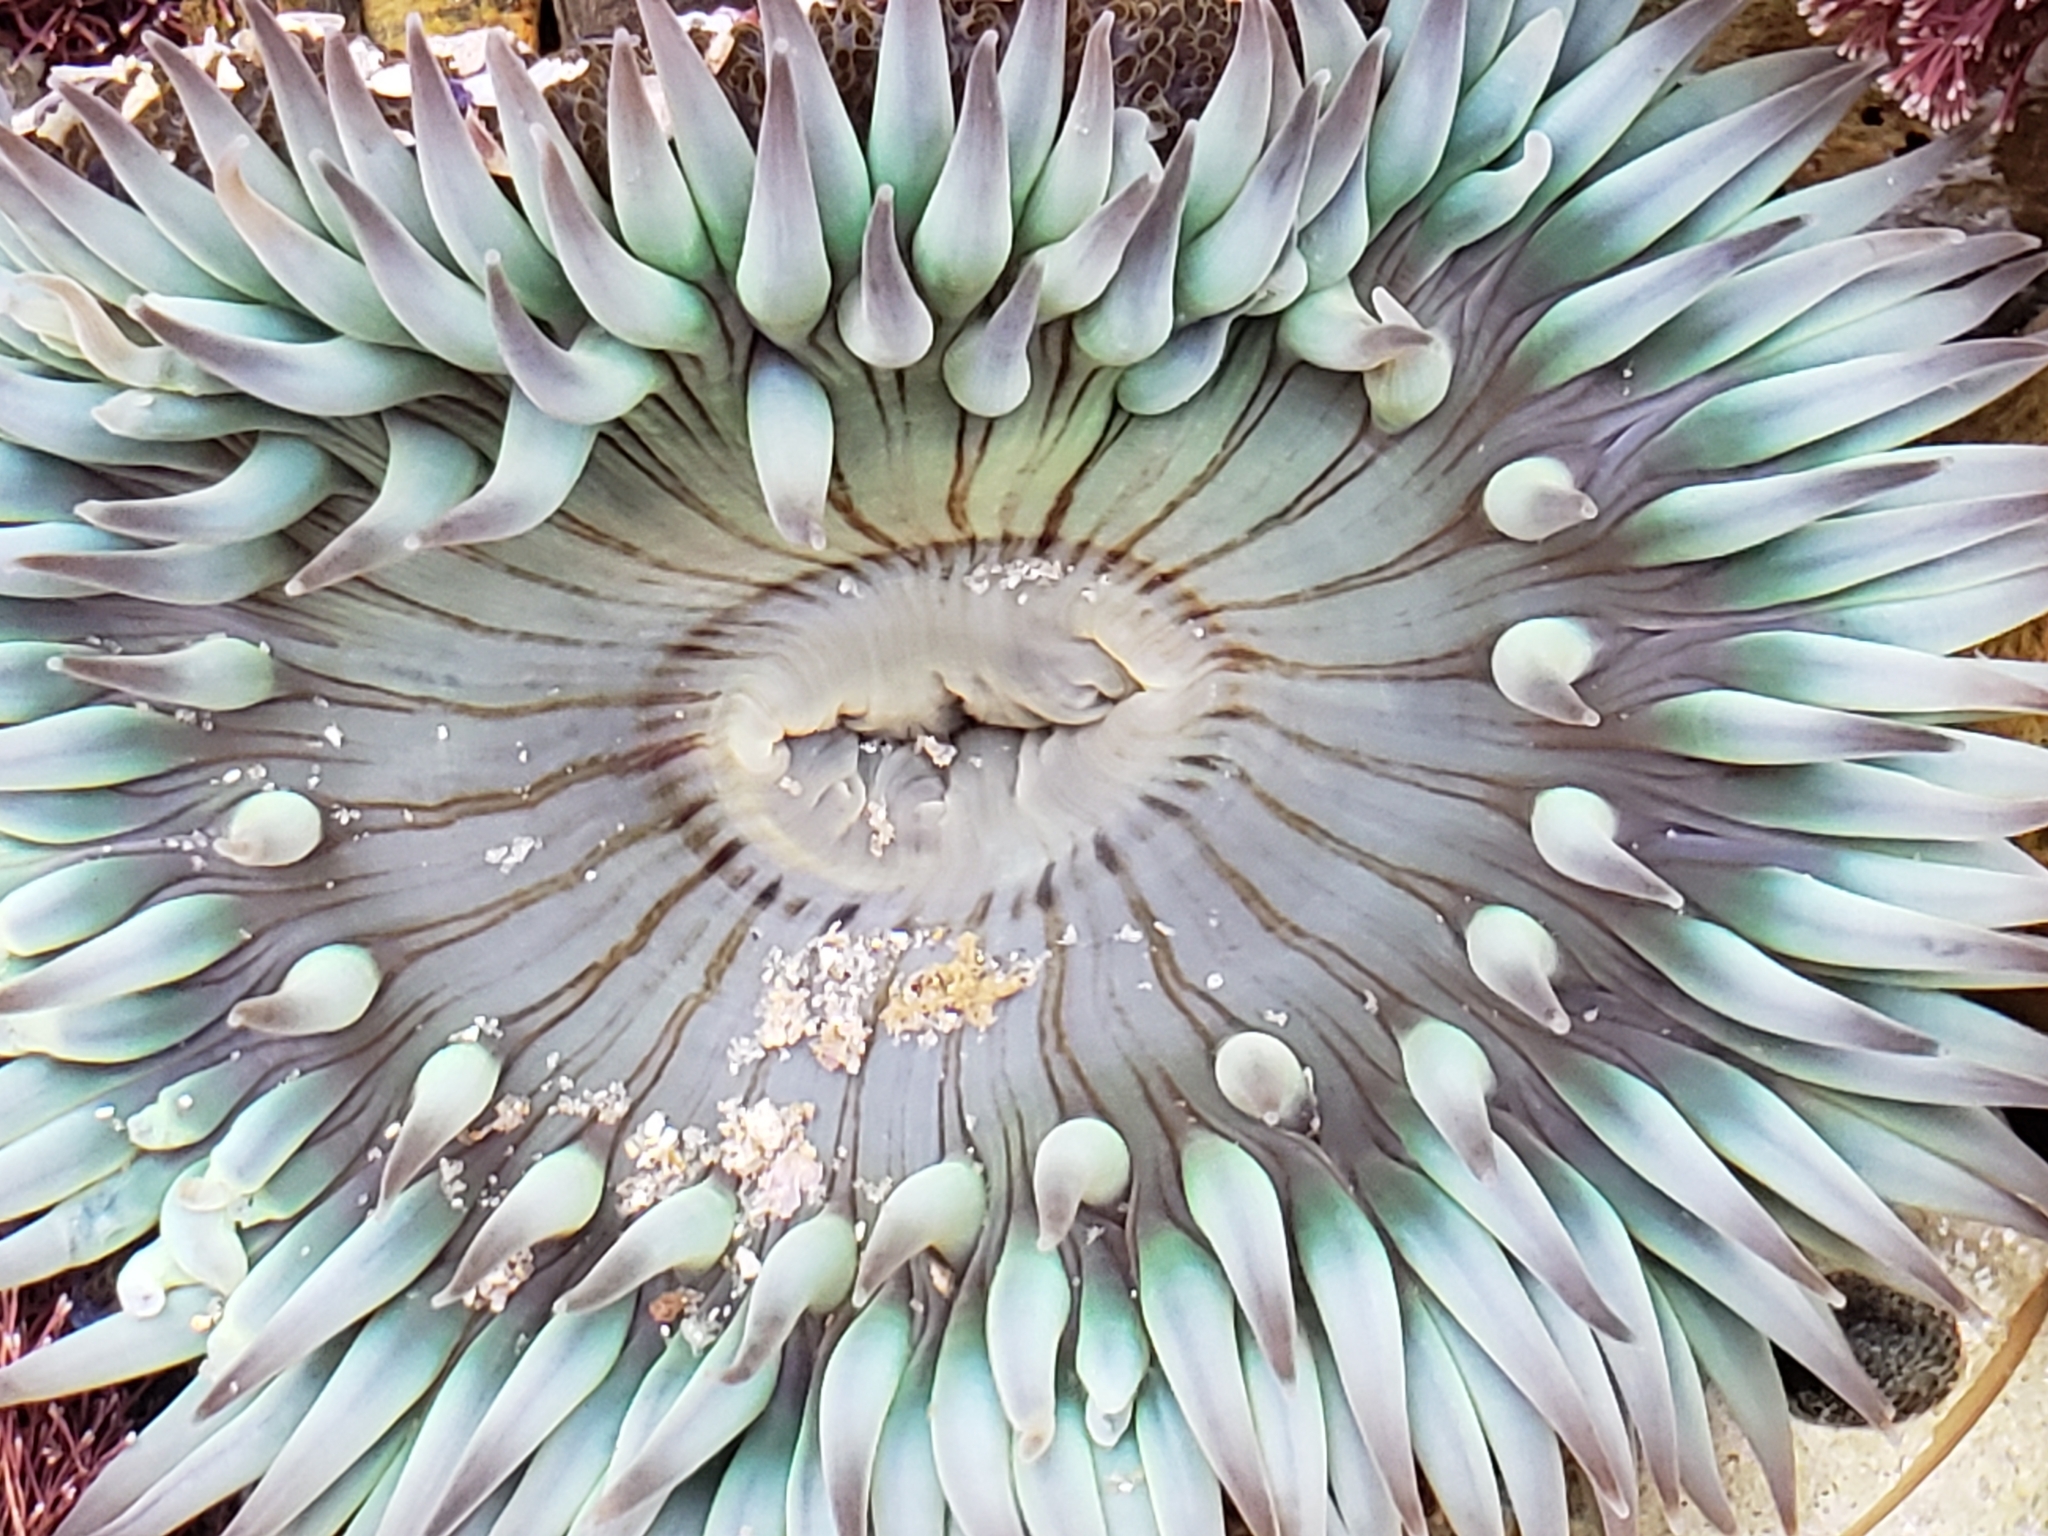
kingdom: Animalia
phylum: Cnidaria
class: Anthozoa
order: Actiniaria
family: Actiniidae
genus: Anthopleura
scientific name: Anthopleura sola
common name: Sun anemone
